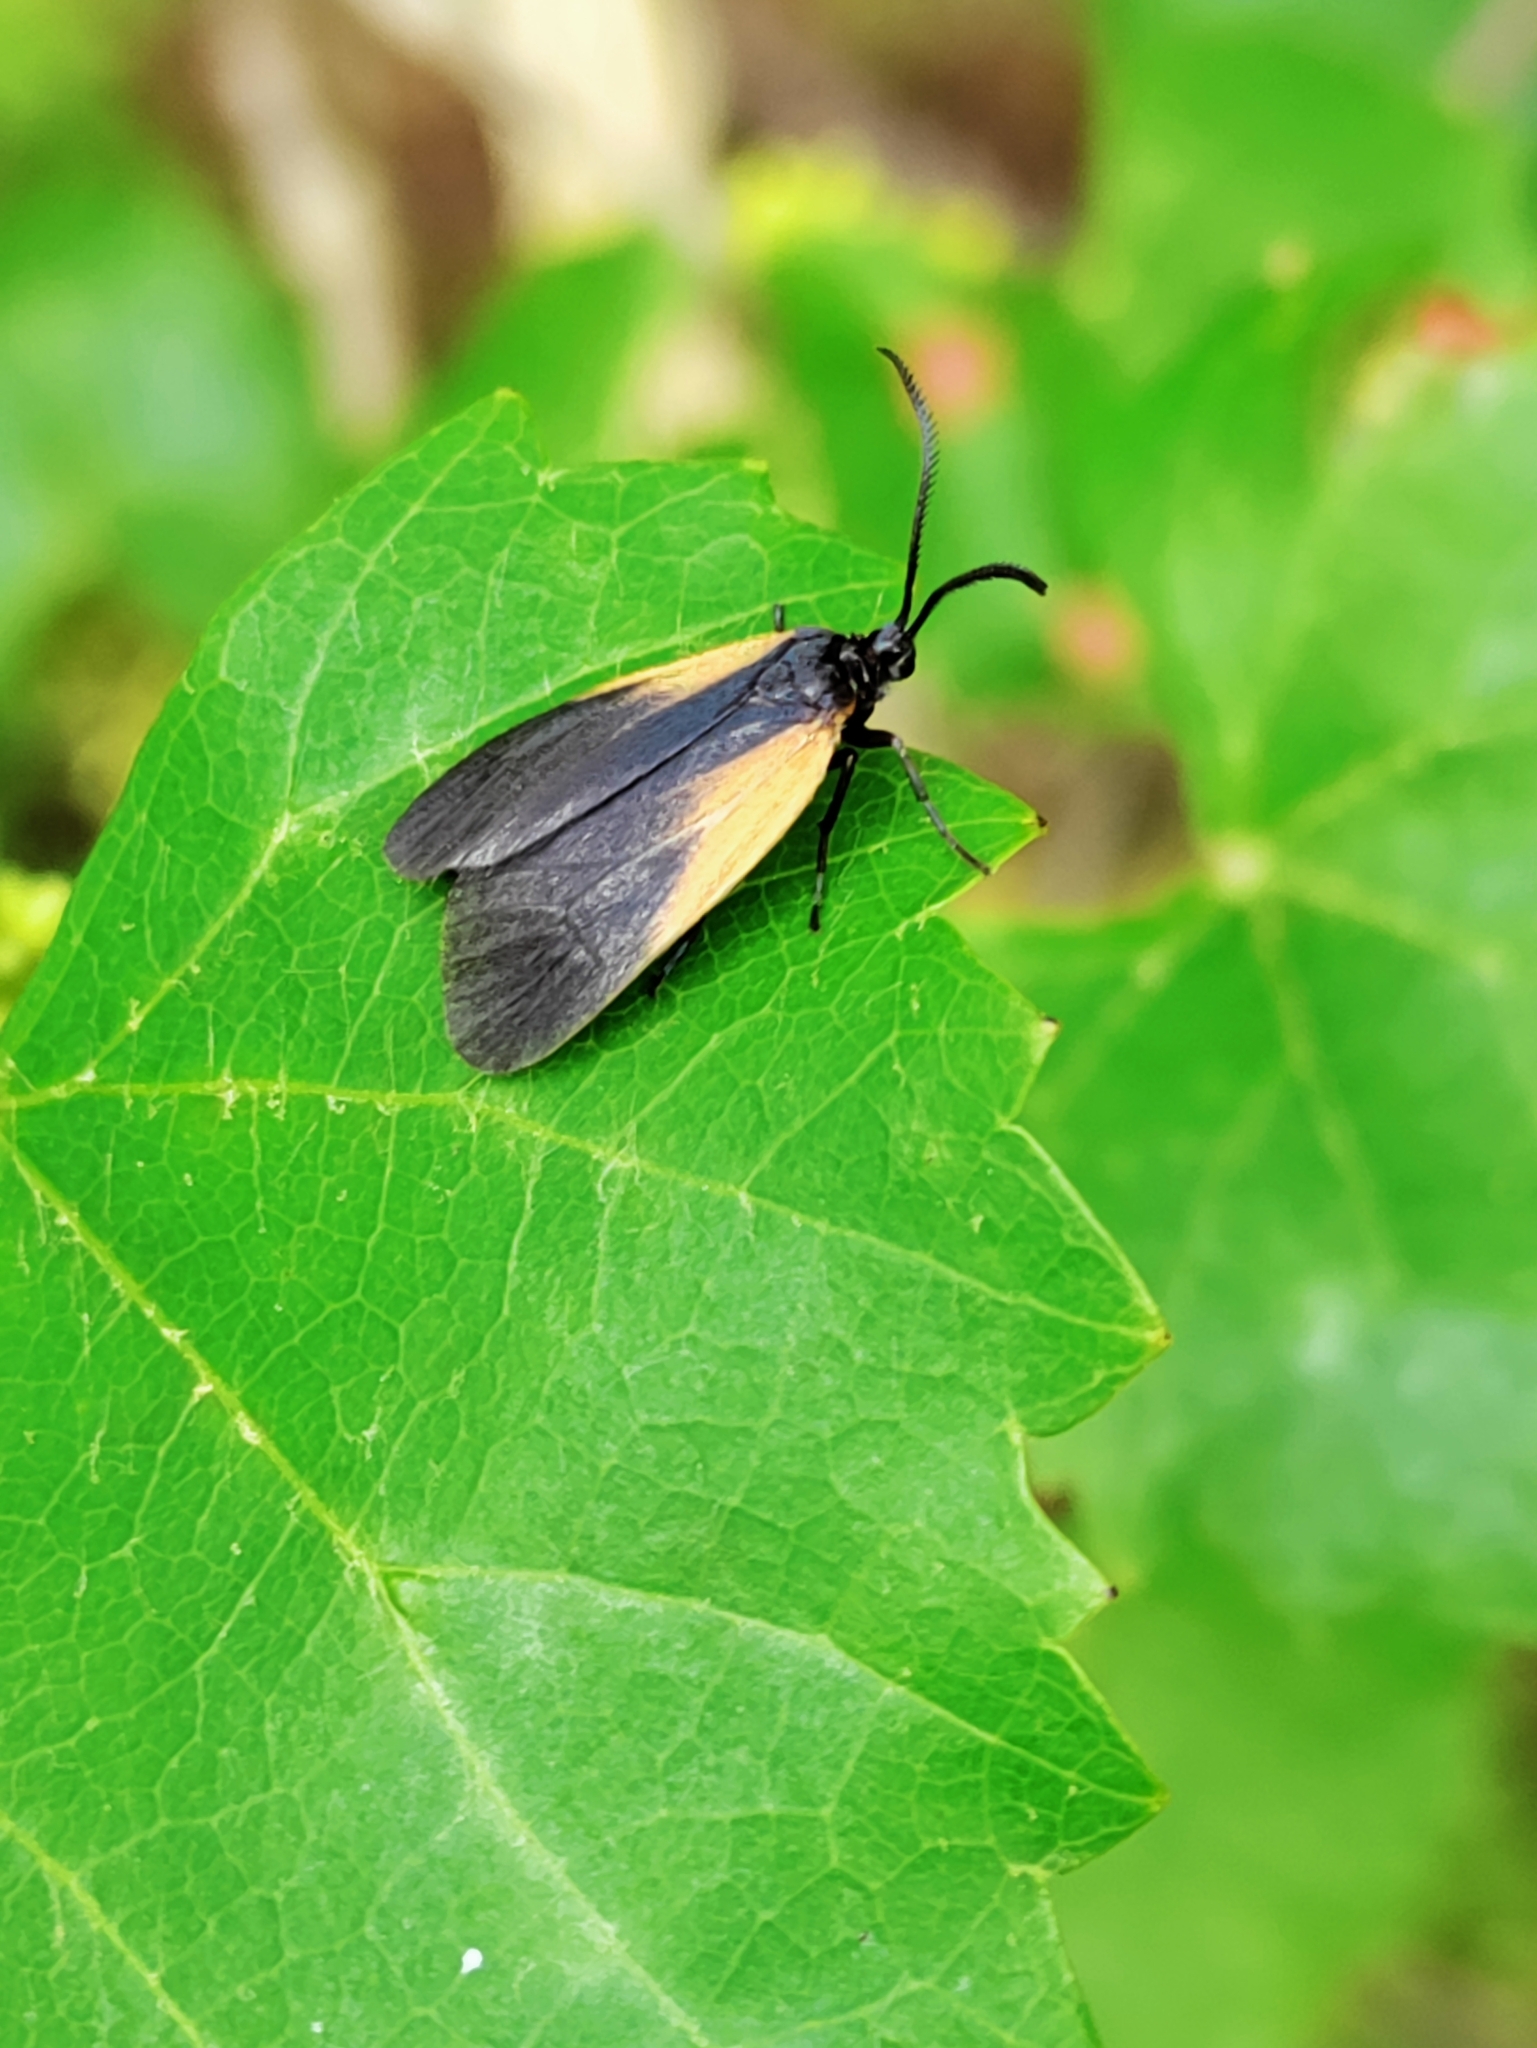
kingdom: Animalia
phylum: Arthropoda
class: Insecta
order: Lepidoptera
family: Zygaenidae
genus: Malthaca
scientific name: Malthaca dimidiata
